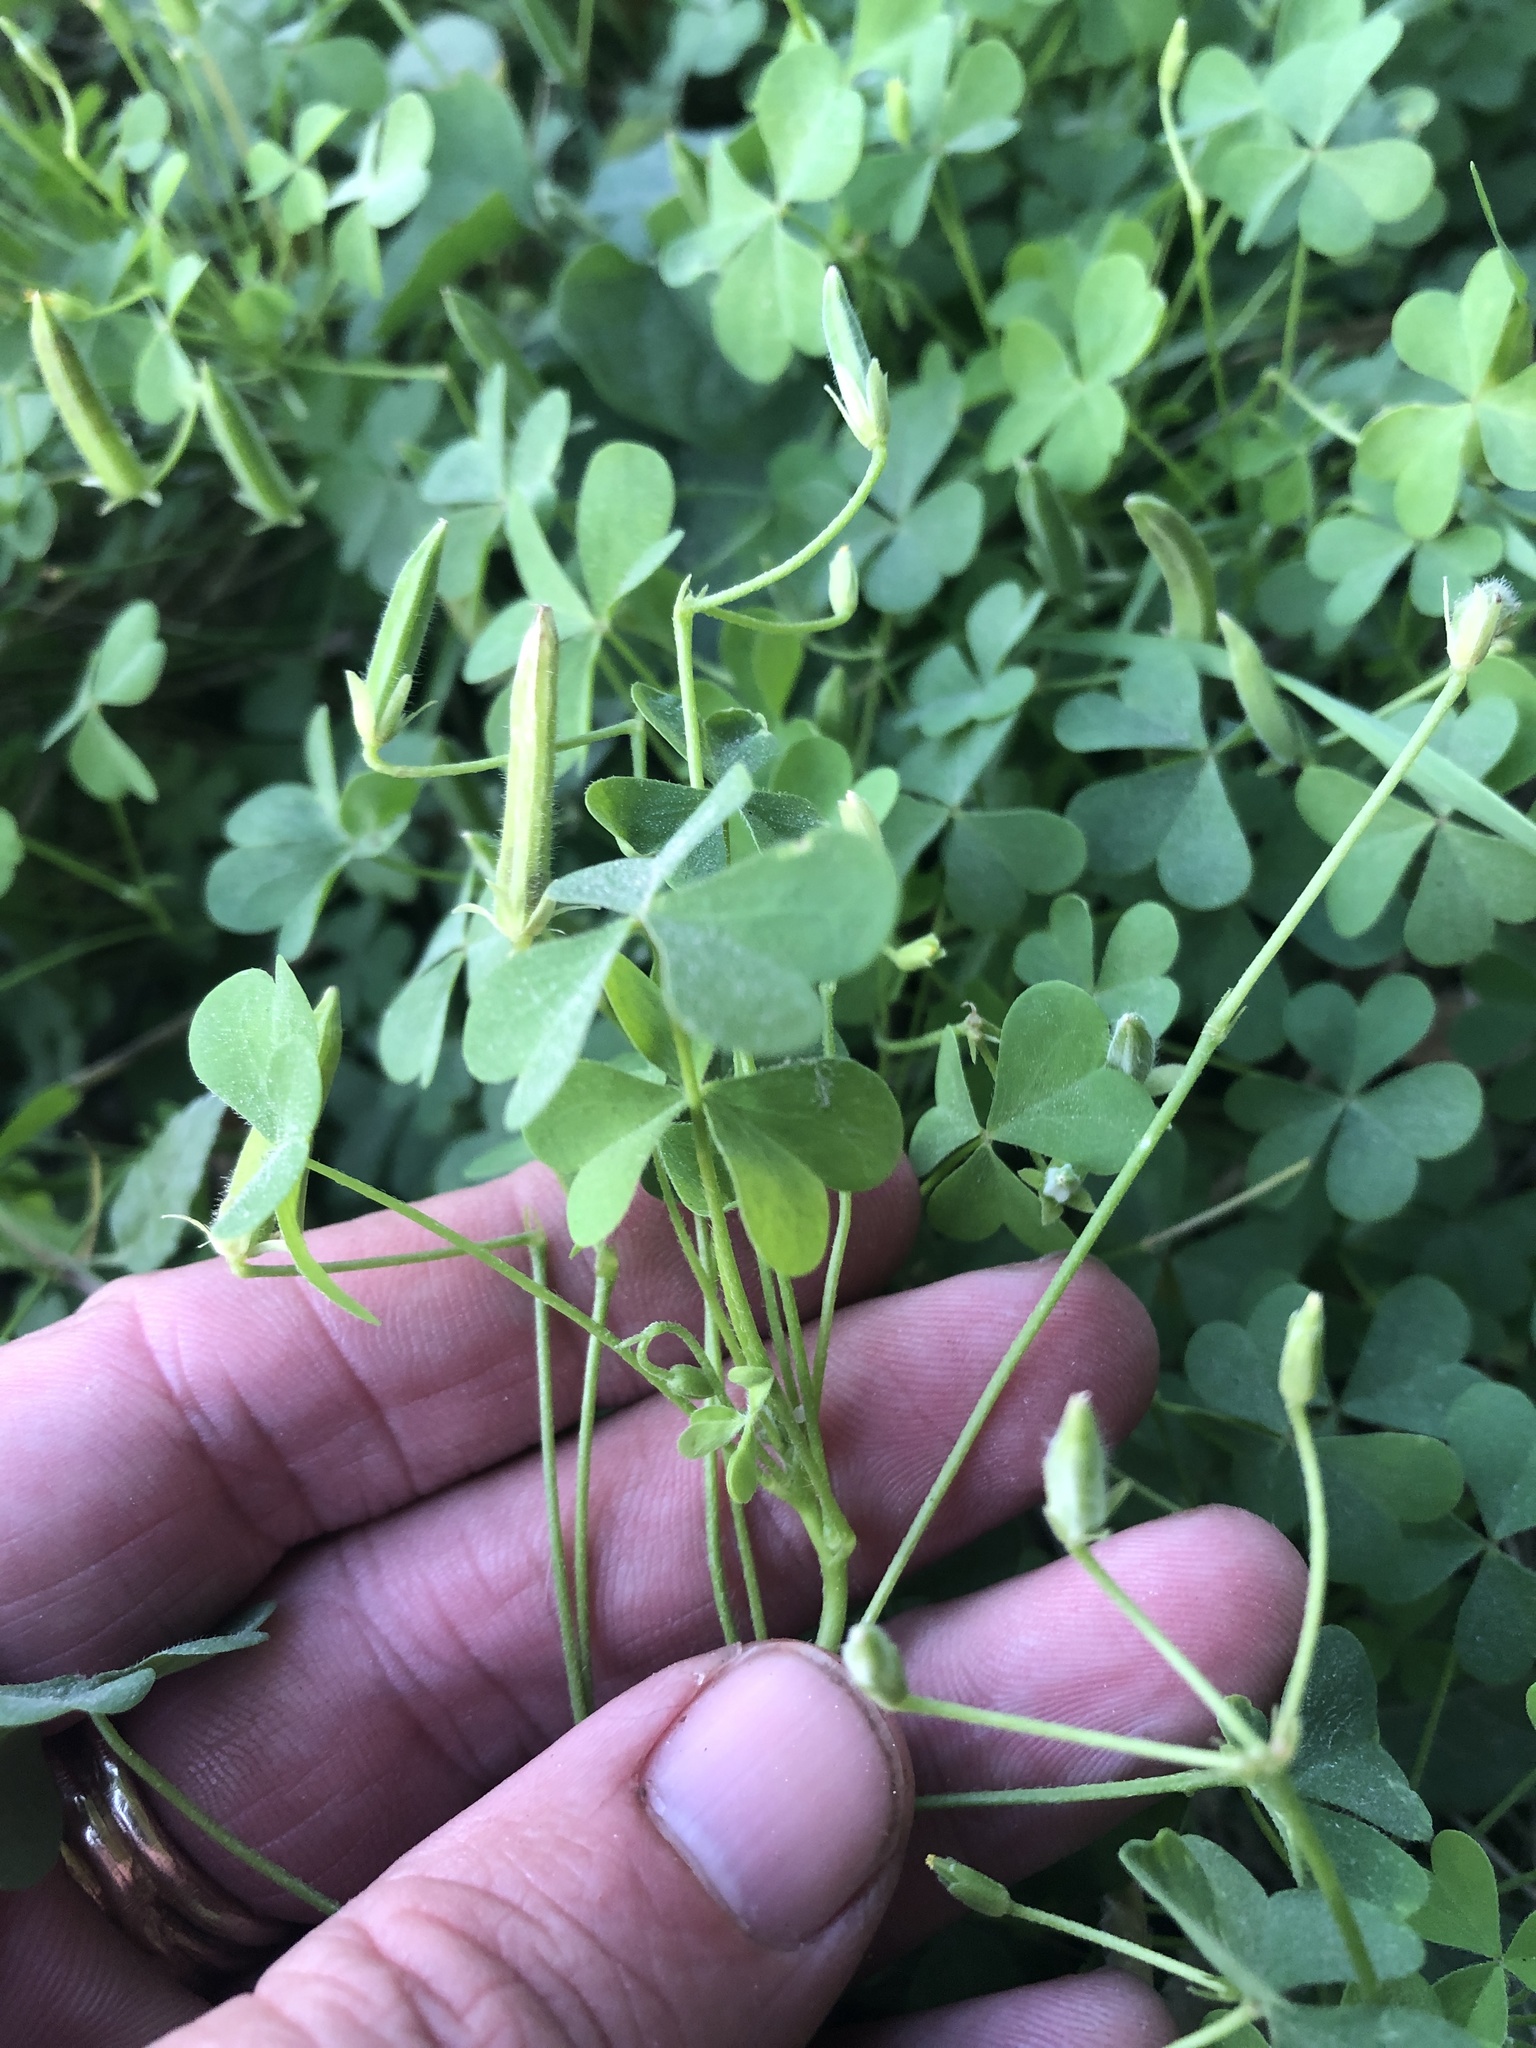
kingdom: Plantae
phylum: Tracheophyta
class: Magnoliopsida
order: Oxalidales
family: Oxalidaceae
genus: Oxalis
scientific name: Oxalis dillenii
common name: Sussex yellow-sorrel
